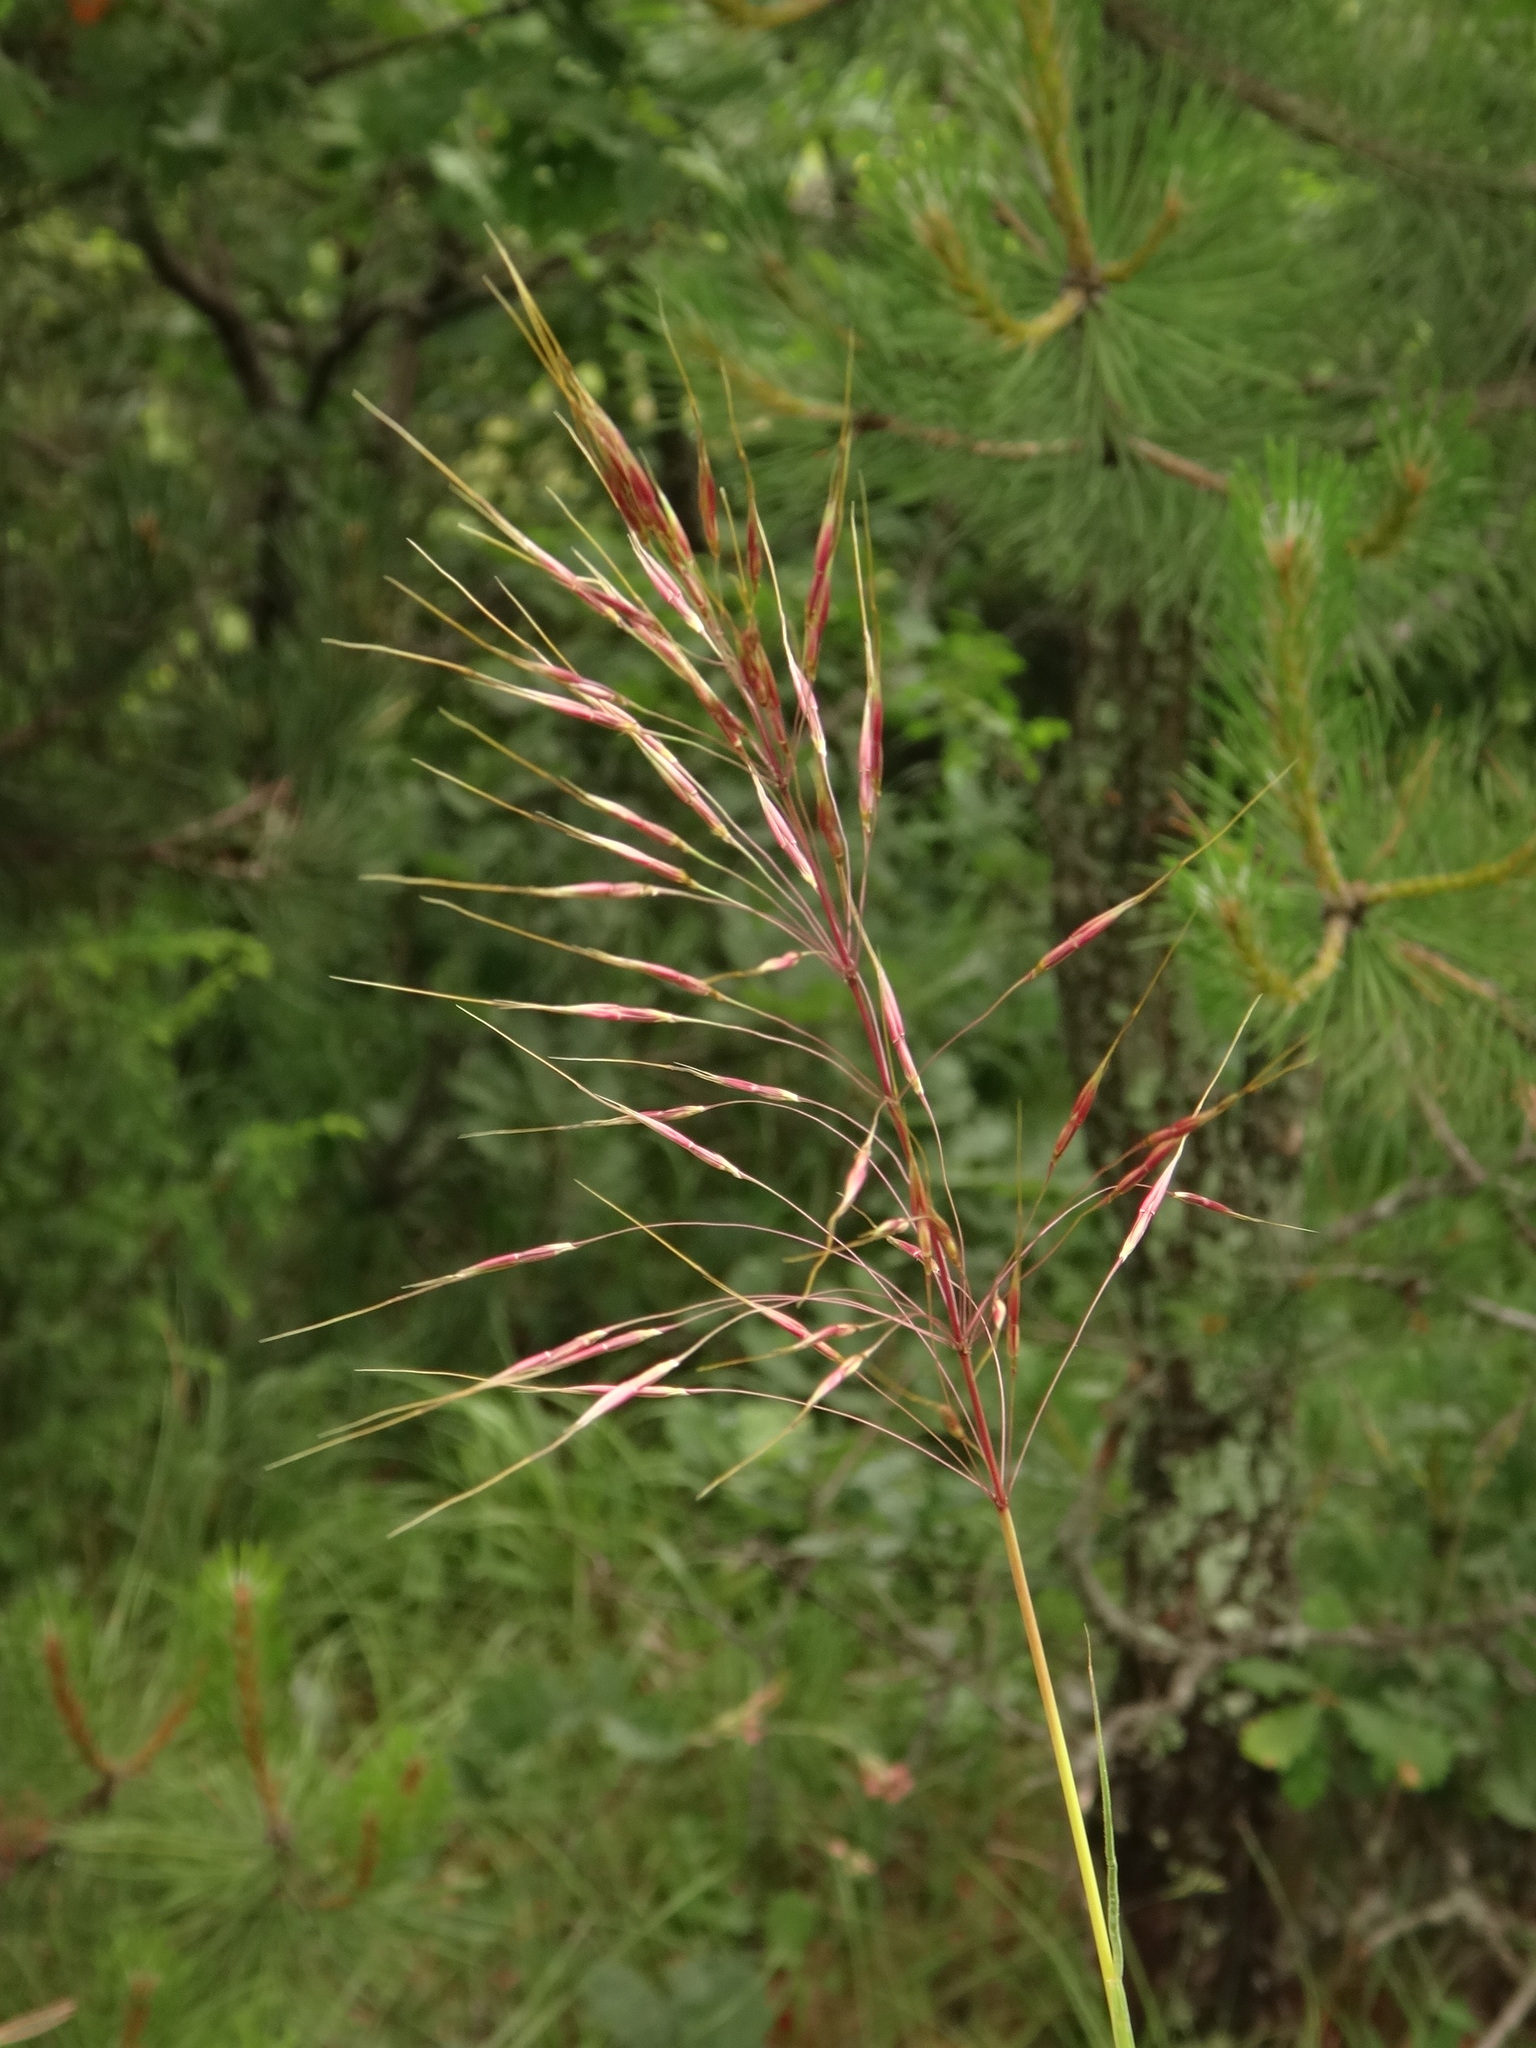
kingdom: Plantae
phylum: Tracheophyta
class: Liliopsida
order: Poales
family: Poaceae
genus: Chrysopogon
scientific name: Chrysopogon gryllus
